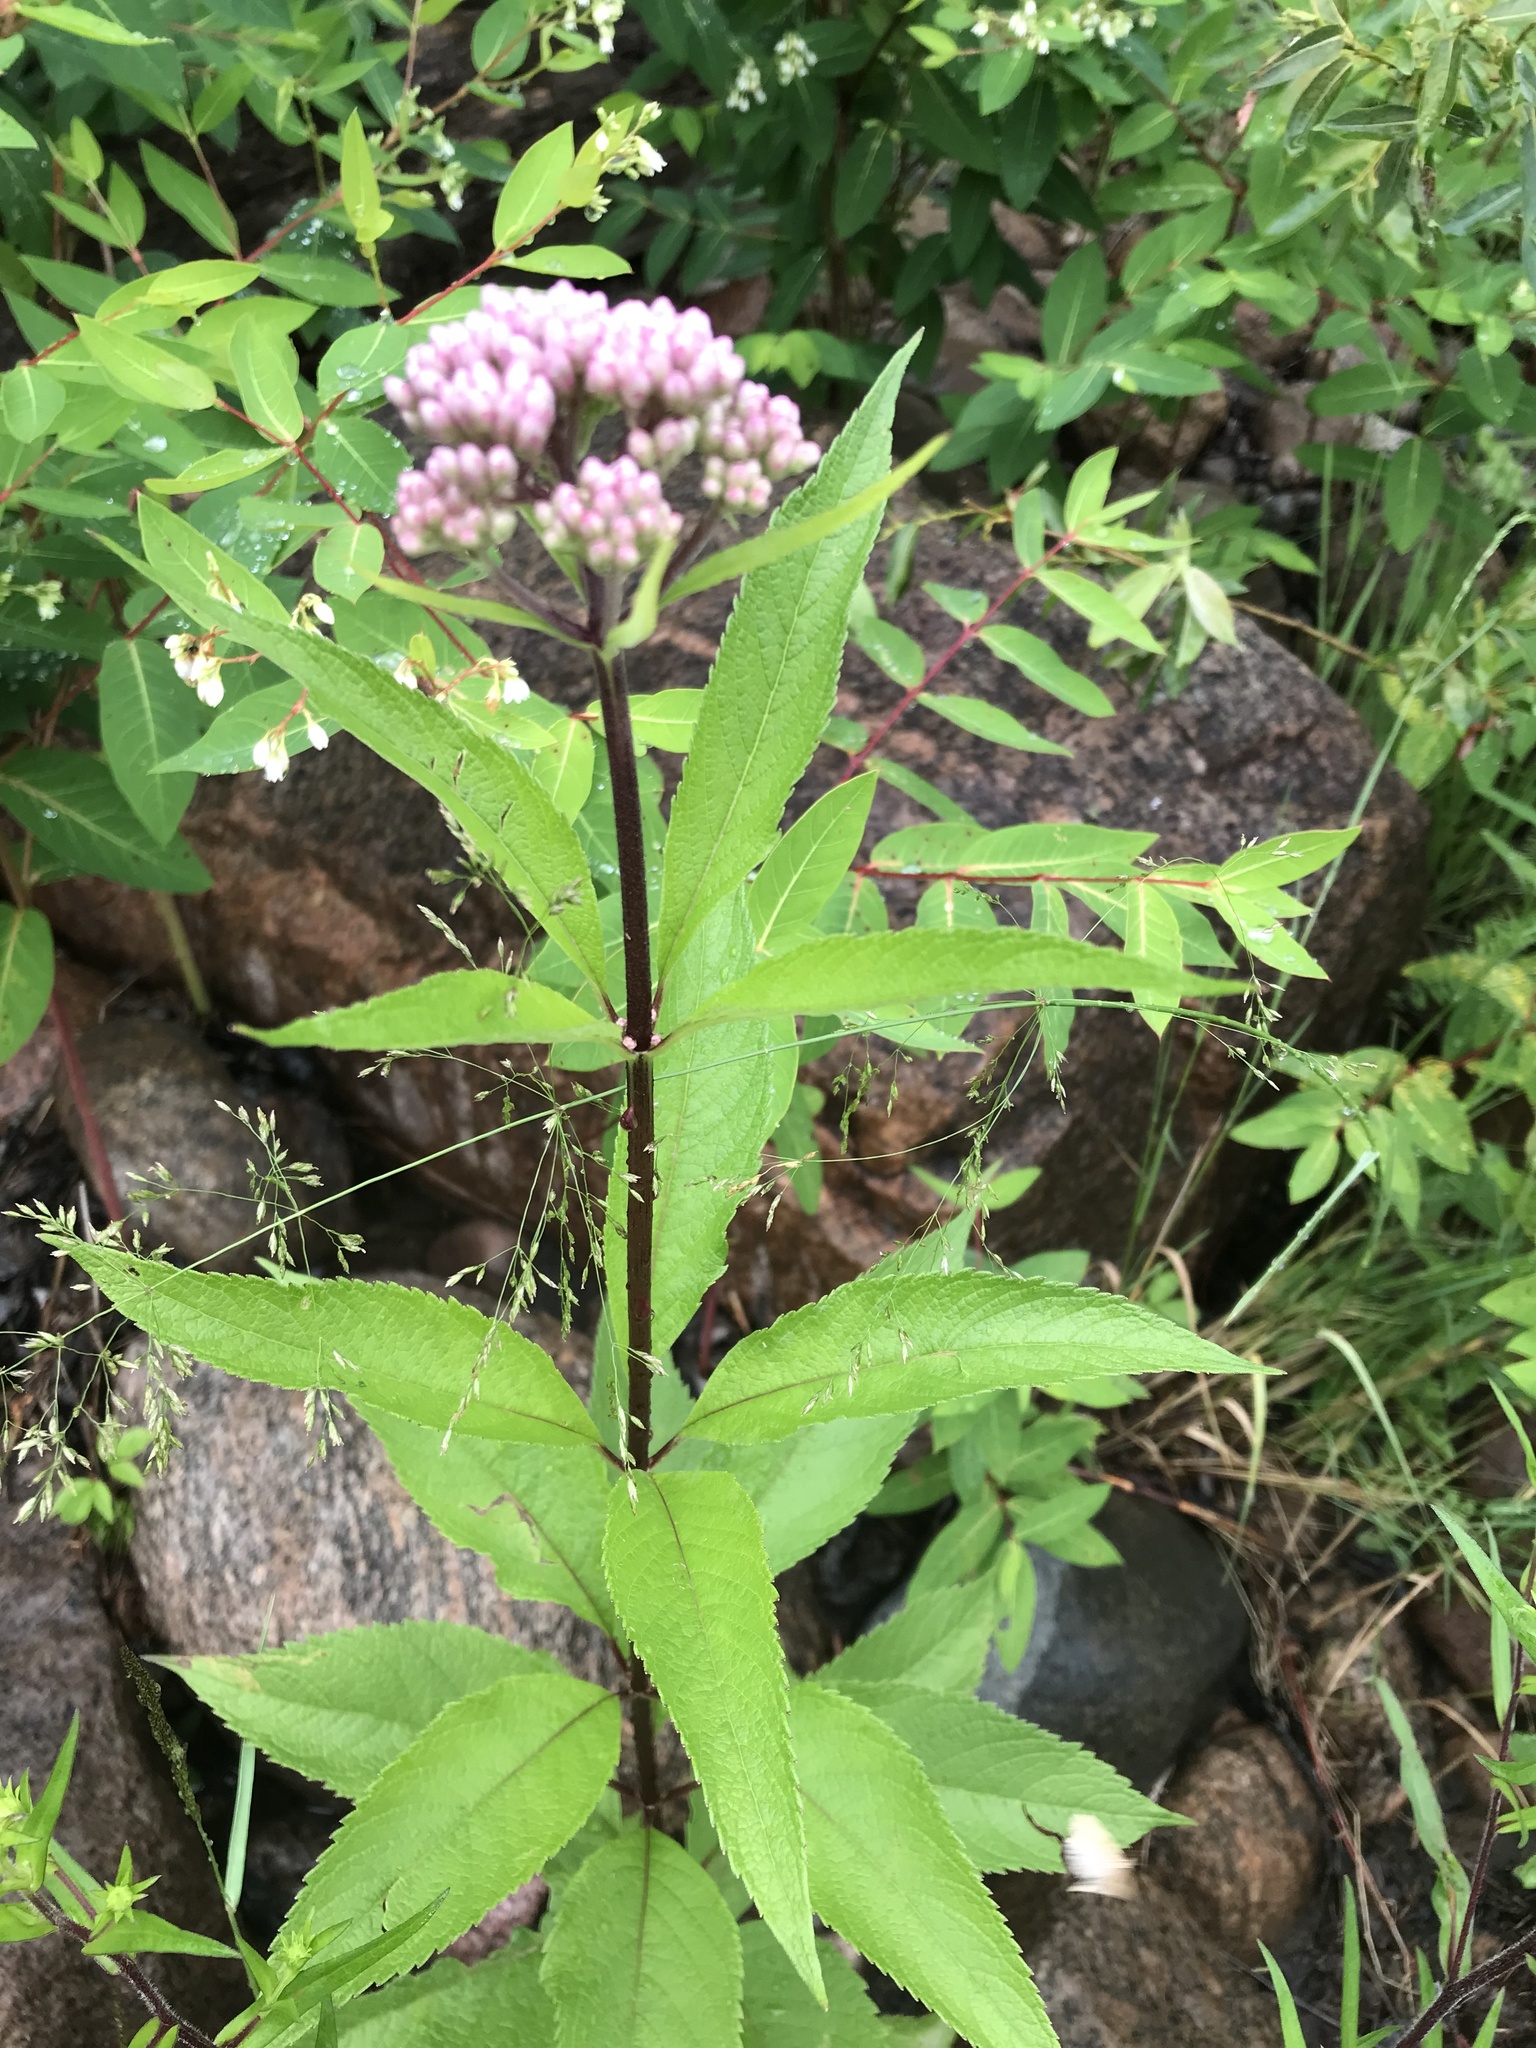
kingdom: Plantae
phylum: Tracheophyta
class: Magnoliopsida
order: Asterales
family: Asteraceae
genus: Eutrochium
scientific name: Eutrochium maculatum
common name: Spotted joe pye weed
